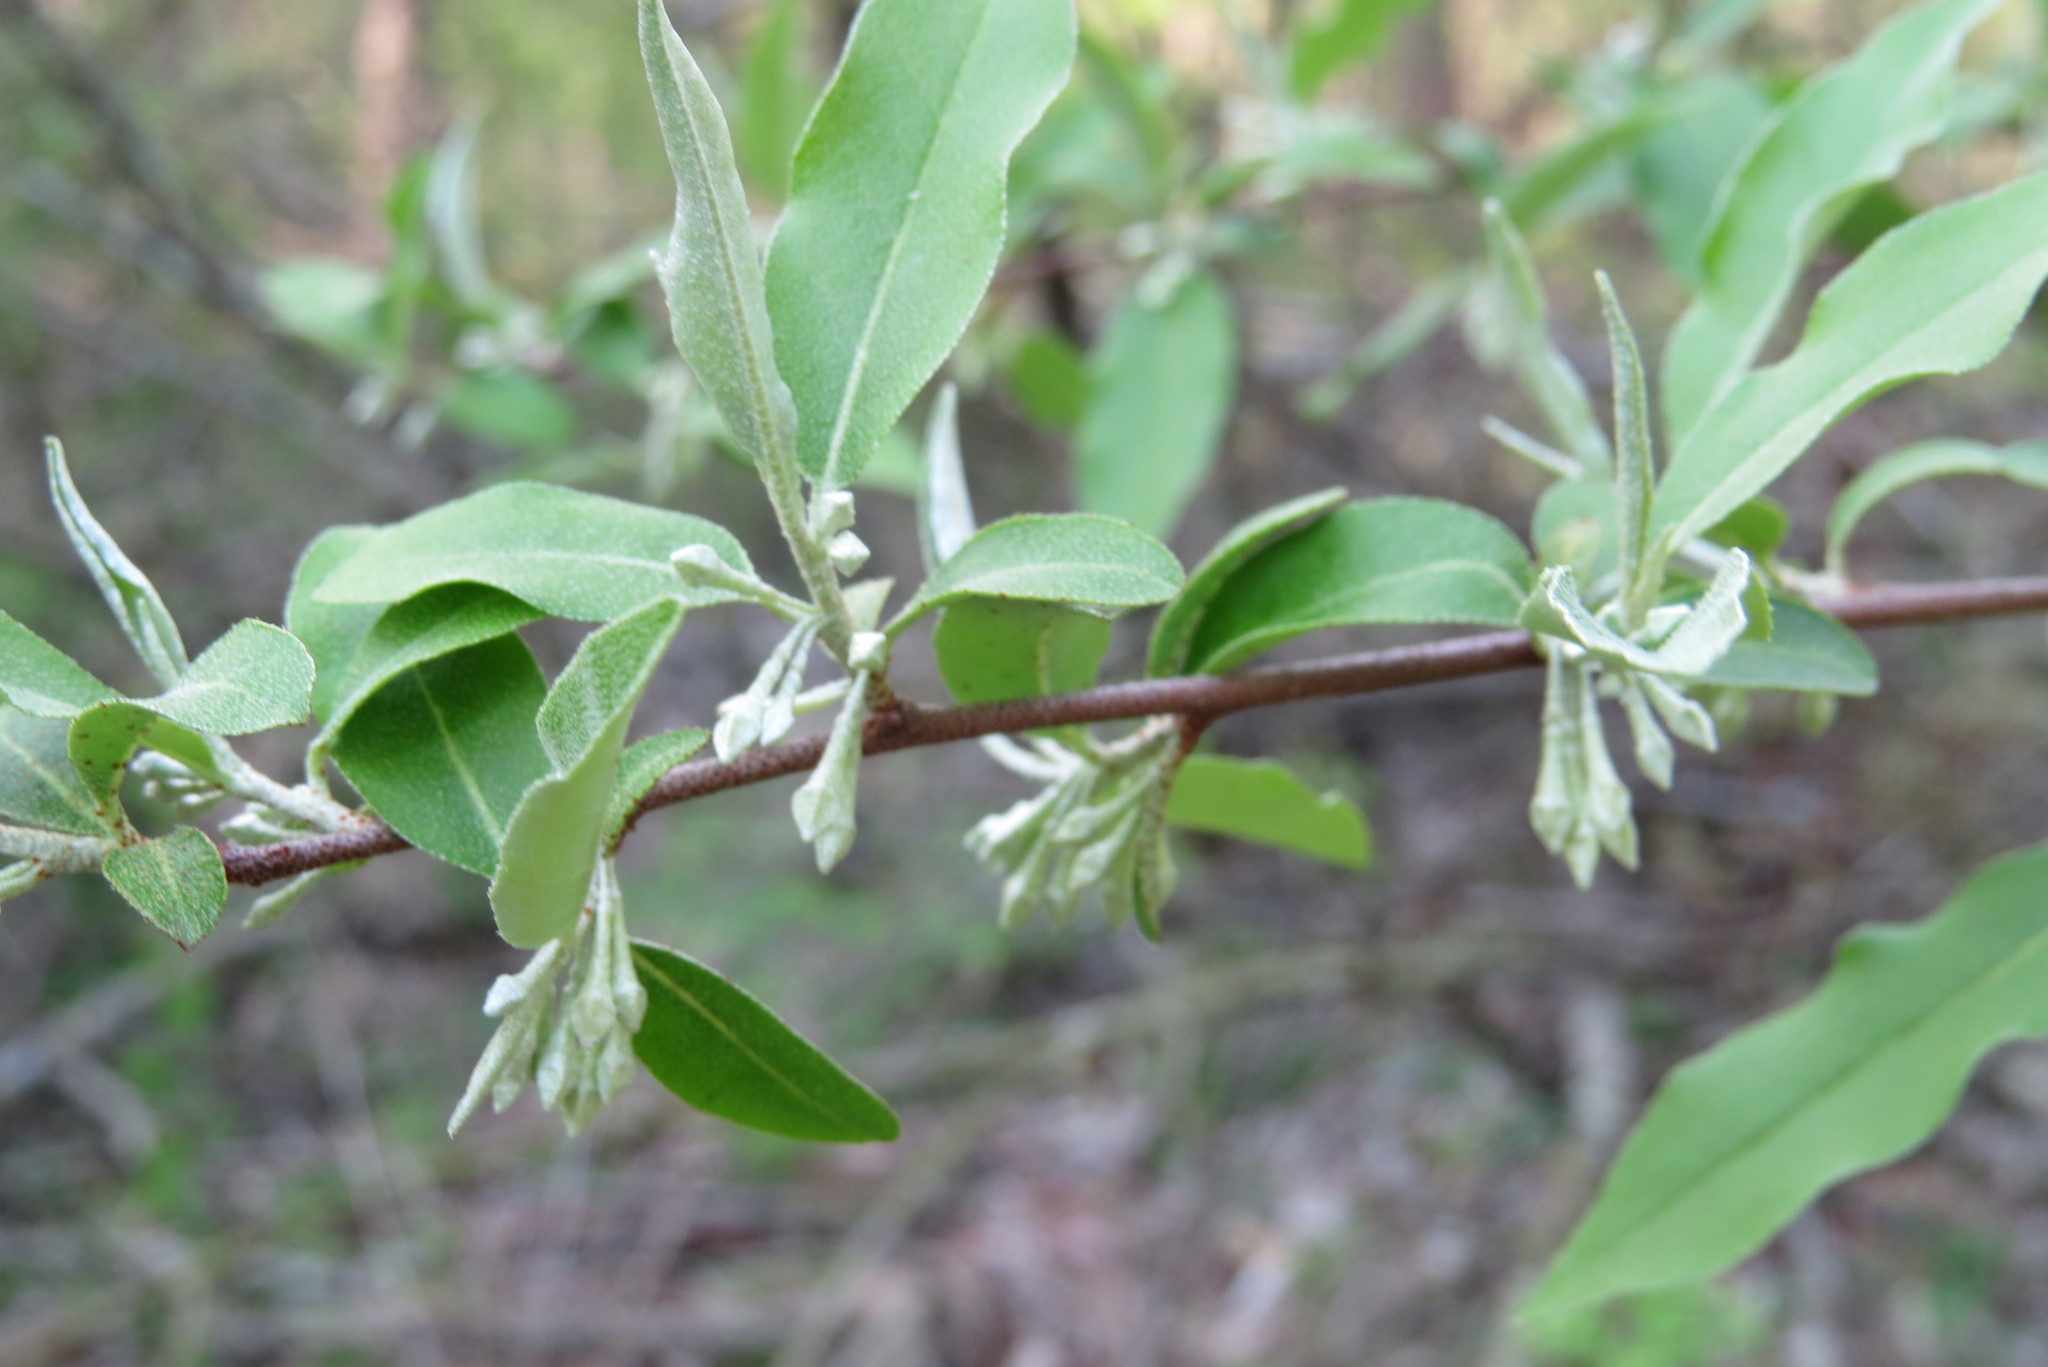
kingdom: Plantae
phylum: Tracheophyta
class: Magnoliopsida
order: Rosales
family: Elaeagnaceae
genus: Elaeagnus
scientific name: Elaeagnus umbellata
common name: Autumn olive
